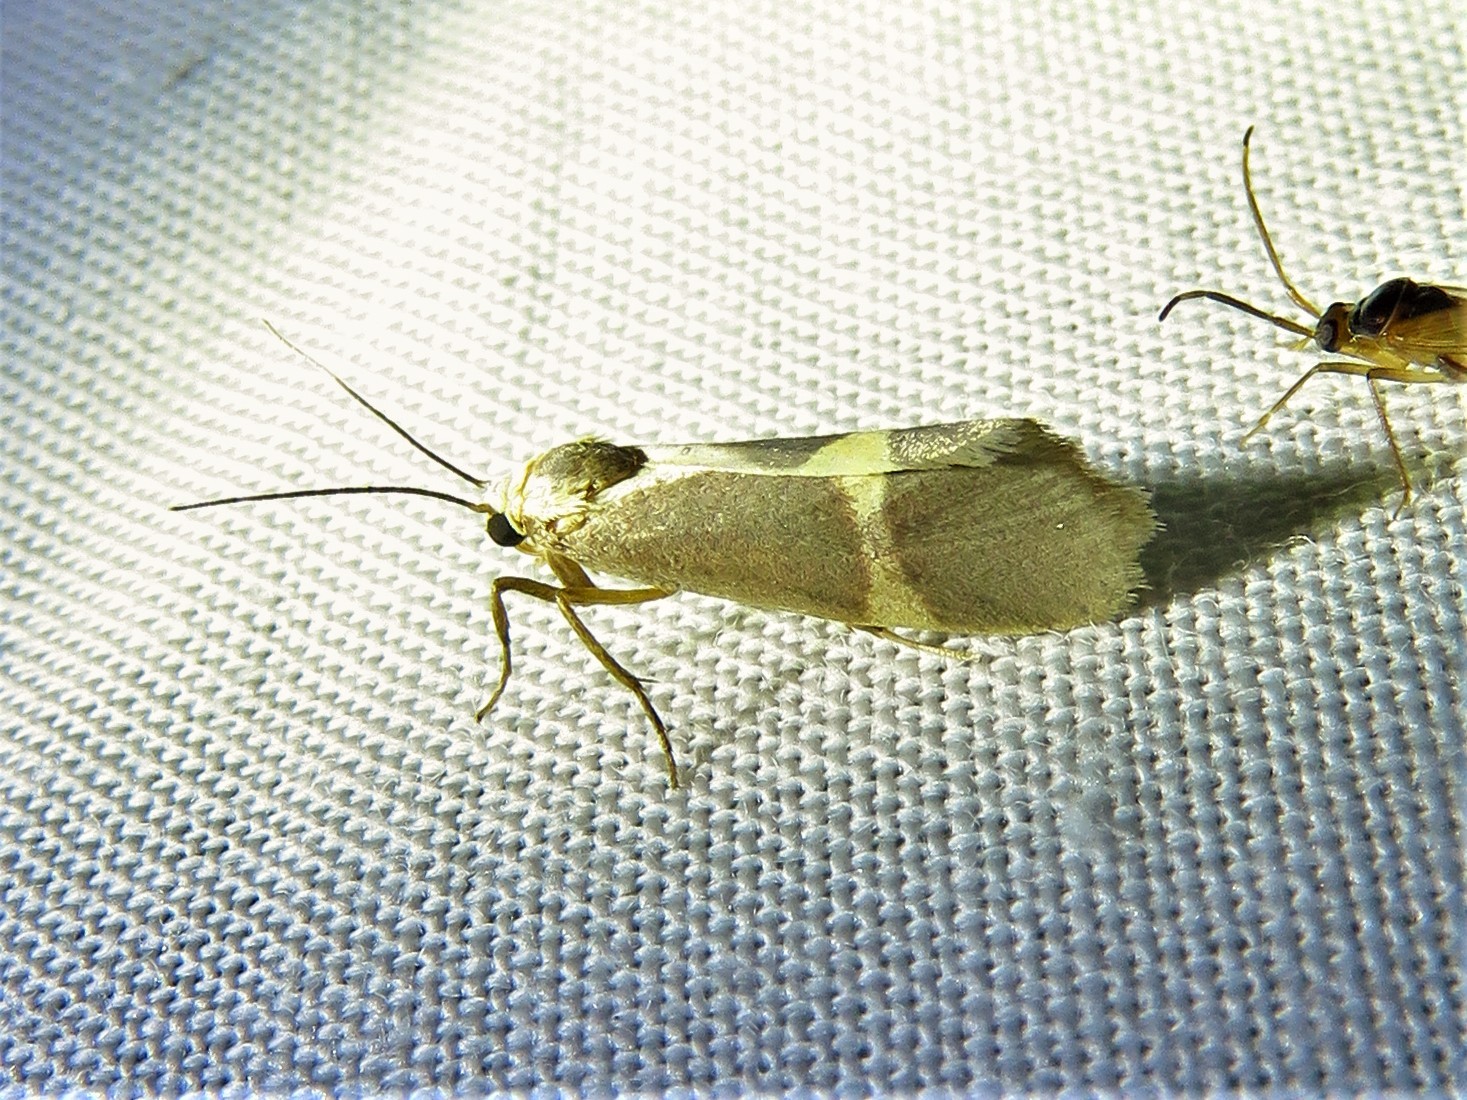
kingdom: Animalia
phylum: Arthropoda
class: Insecta
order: Lepidoptera
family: Erebidae
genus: Cisthene
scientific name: Cisthene tenuifascia
